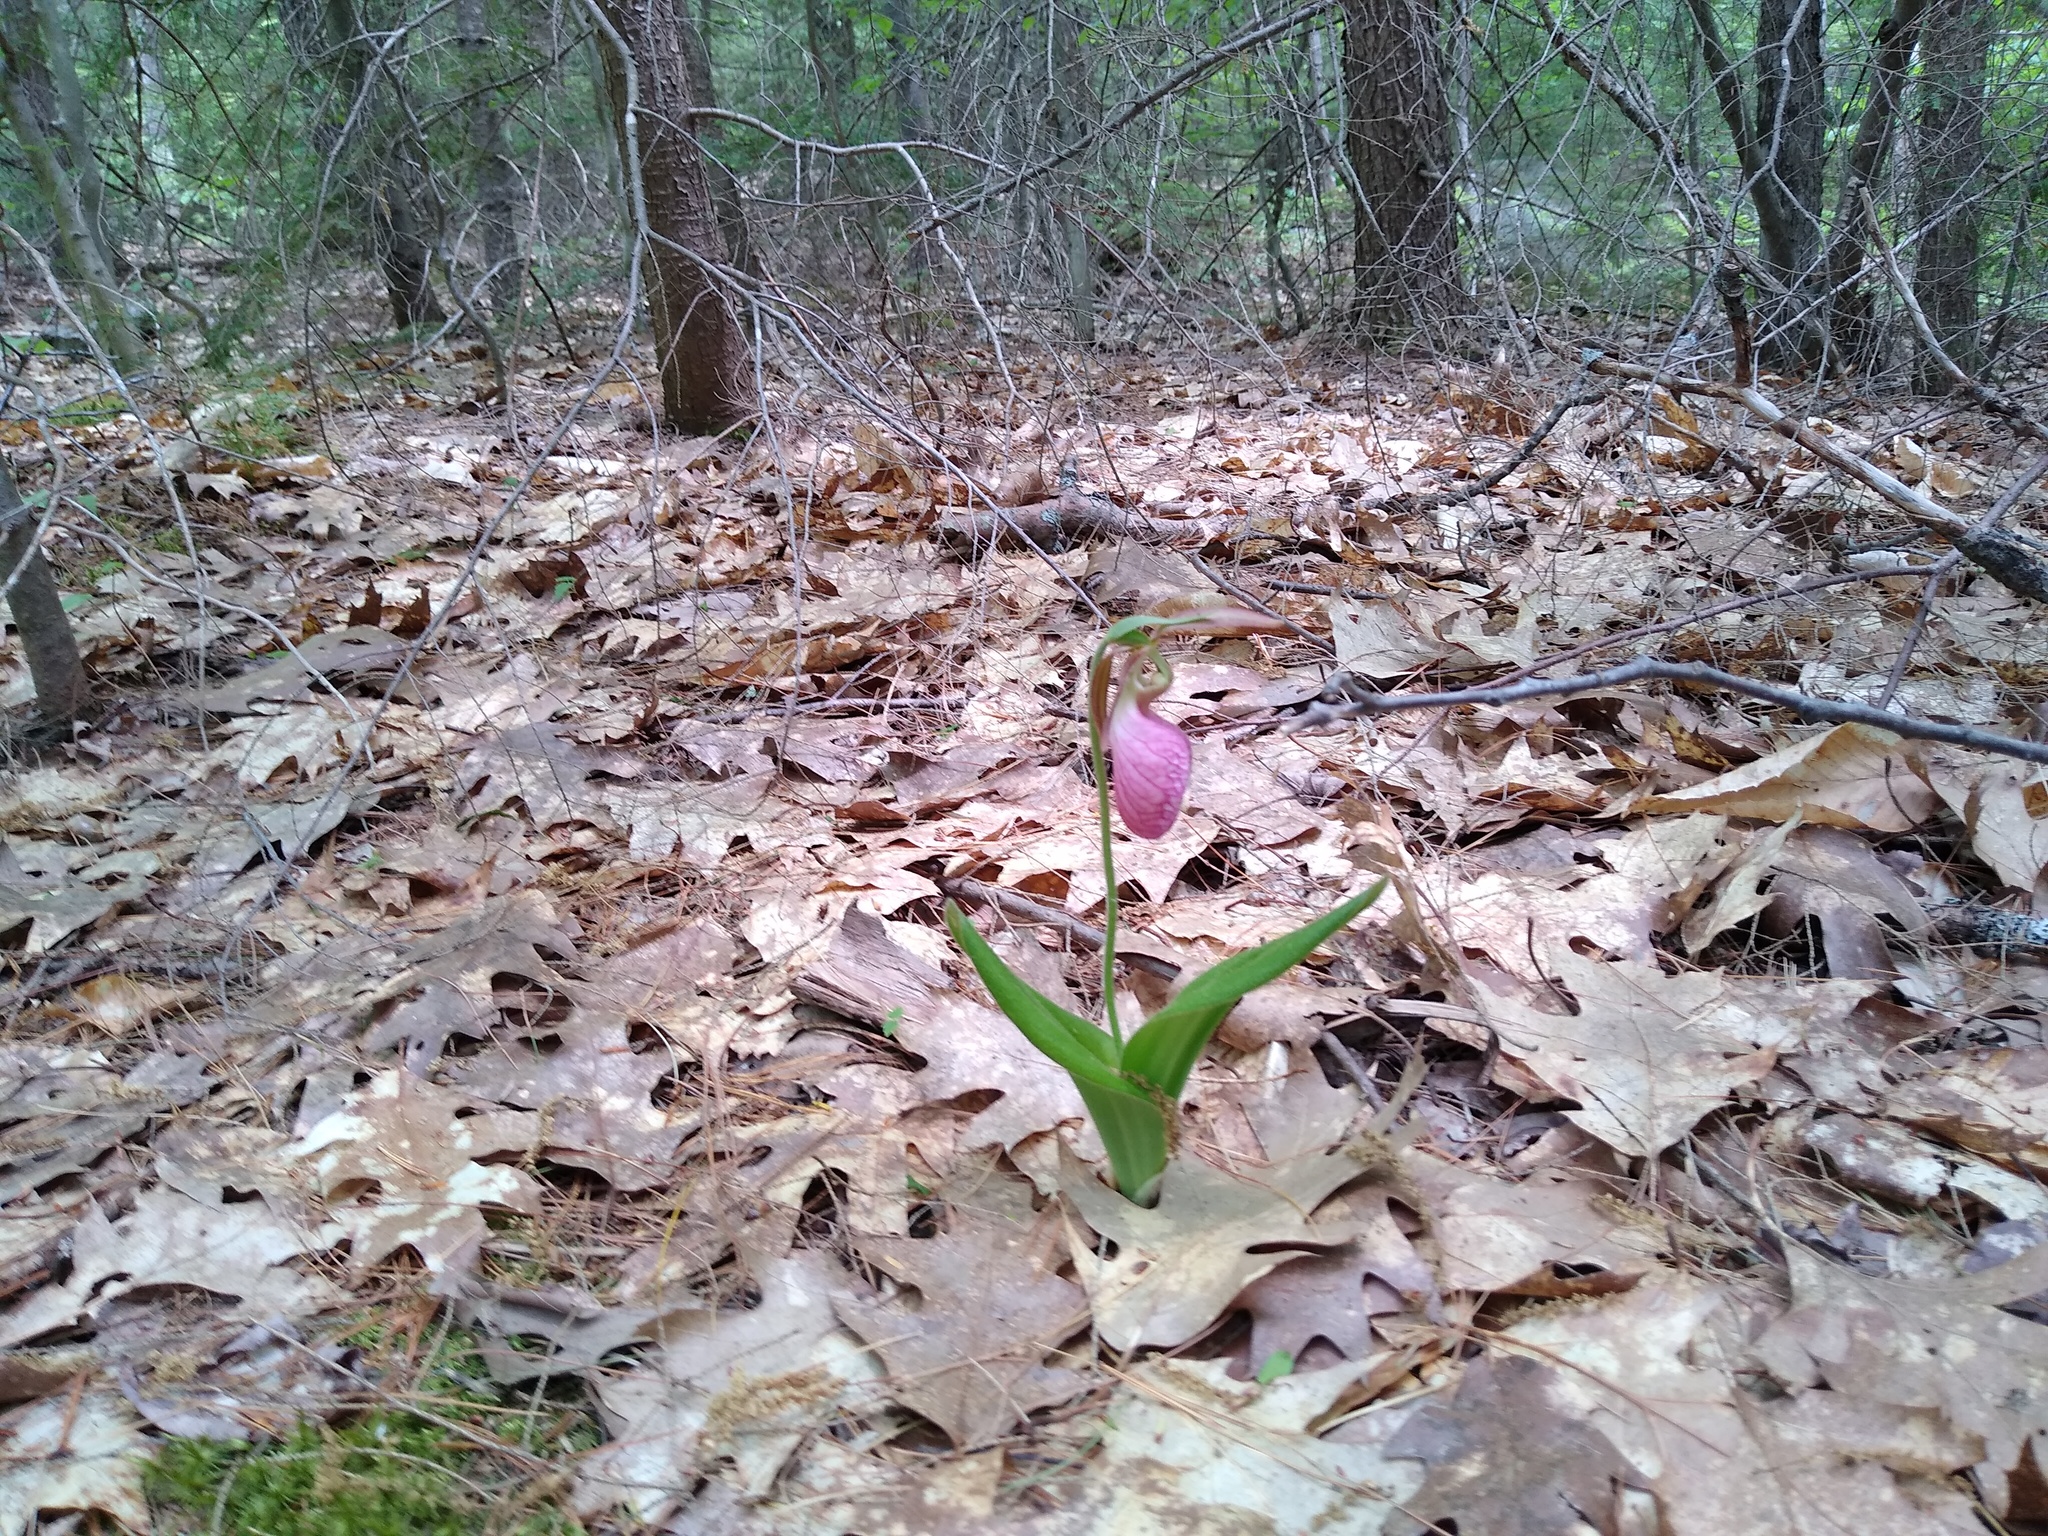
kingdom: Plantae
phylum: Tracheophyta
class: Liliopsida
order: Asparagales
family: Orchidaceae
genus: Cypripedium
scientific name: Cypripedium acaule
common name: Pink lady's-slipper
